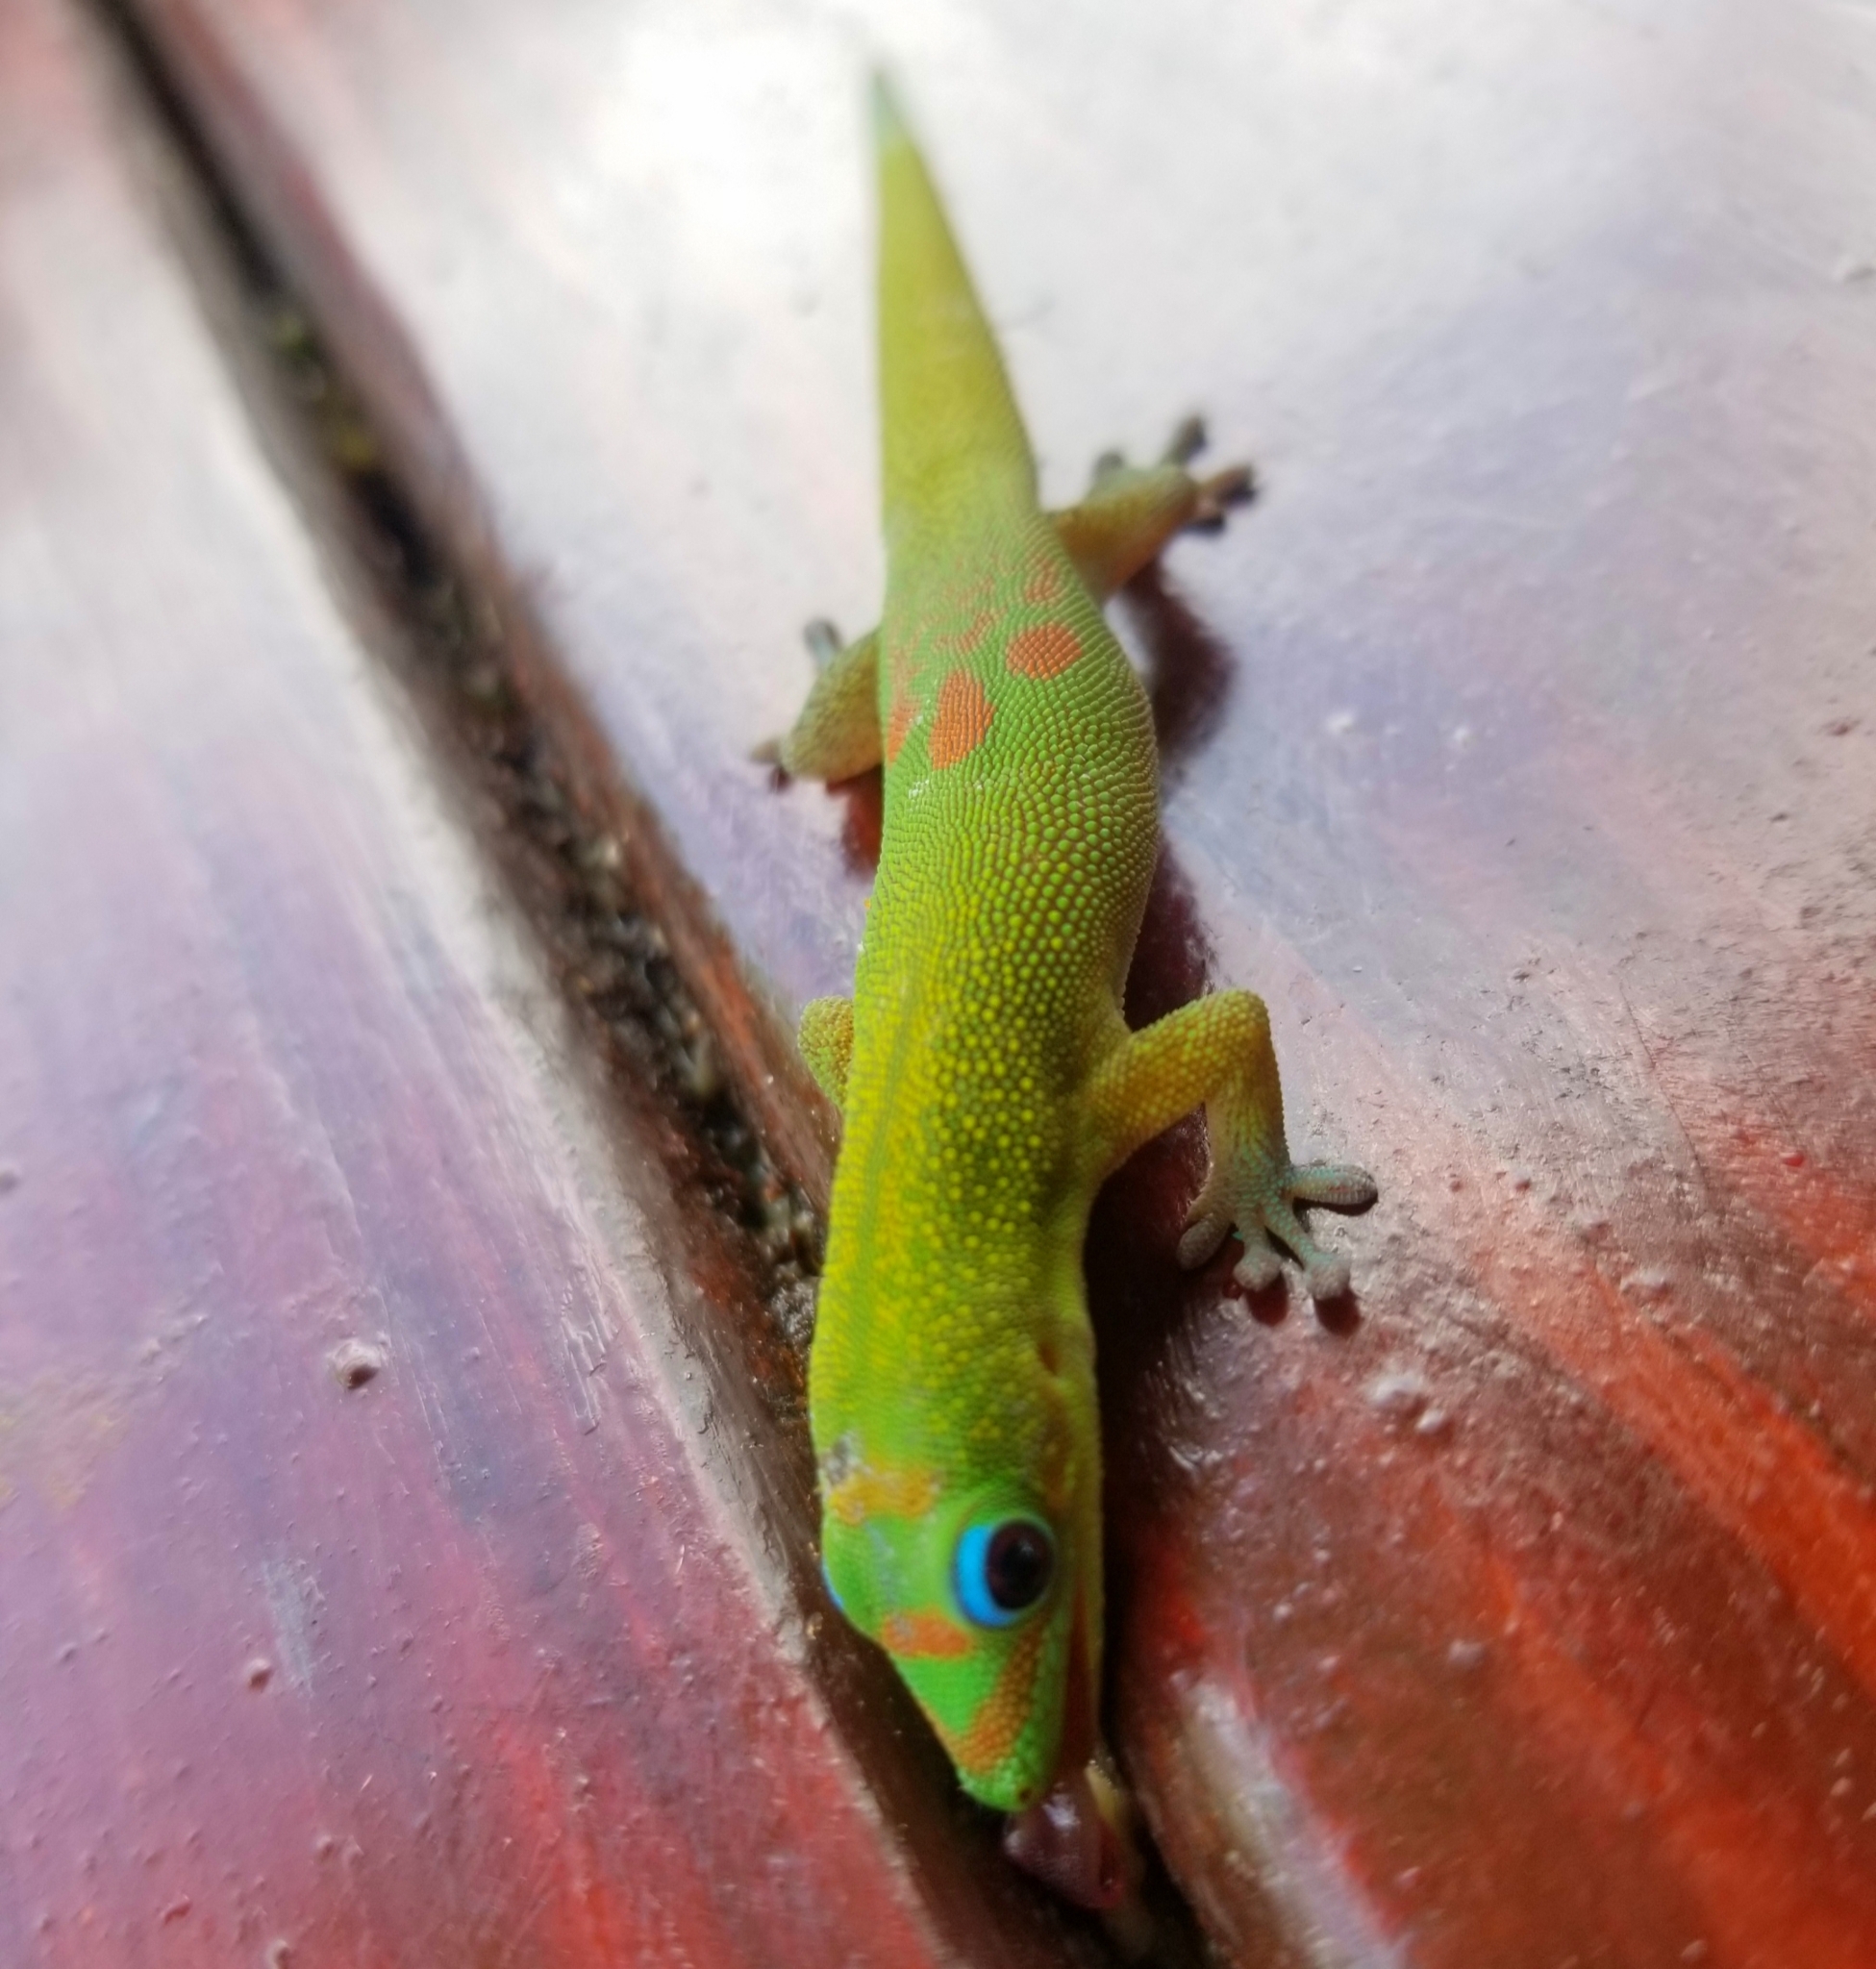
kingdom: Animalia
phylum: Chordata
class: Squamata
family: Gekkonidae
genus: Phelsuma
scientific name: Phelsuma laticauda
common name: Gold dust day gecko
